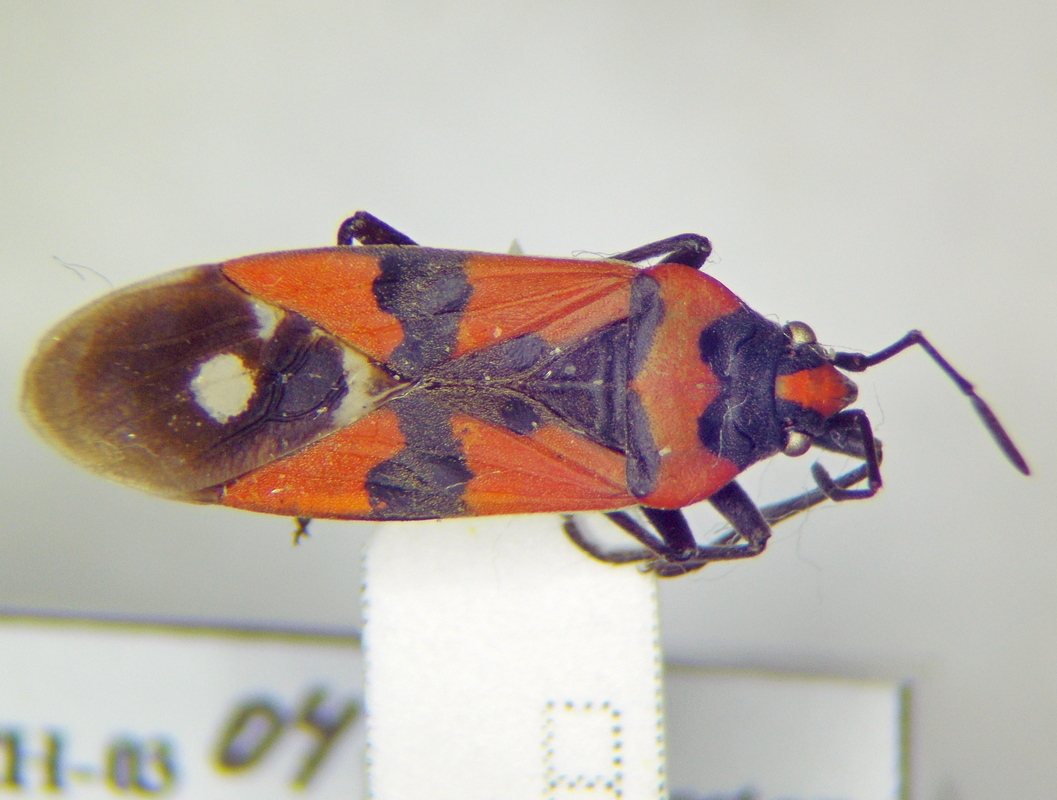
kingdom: Animalia
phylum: Arthropoda
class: Insecta
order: Hemiptera
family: Lygaeidae
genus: Lygaeus
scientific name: Lygaeus equestris
